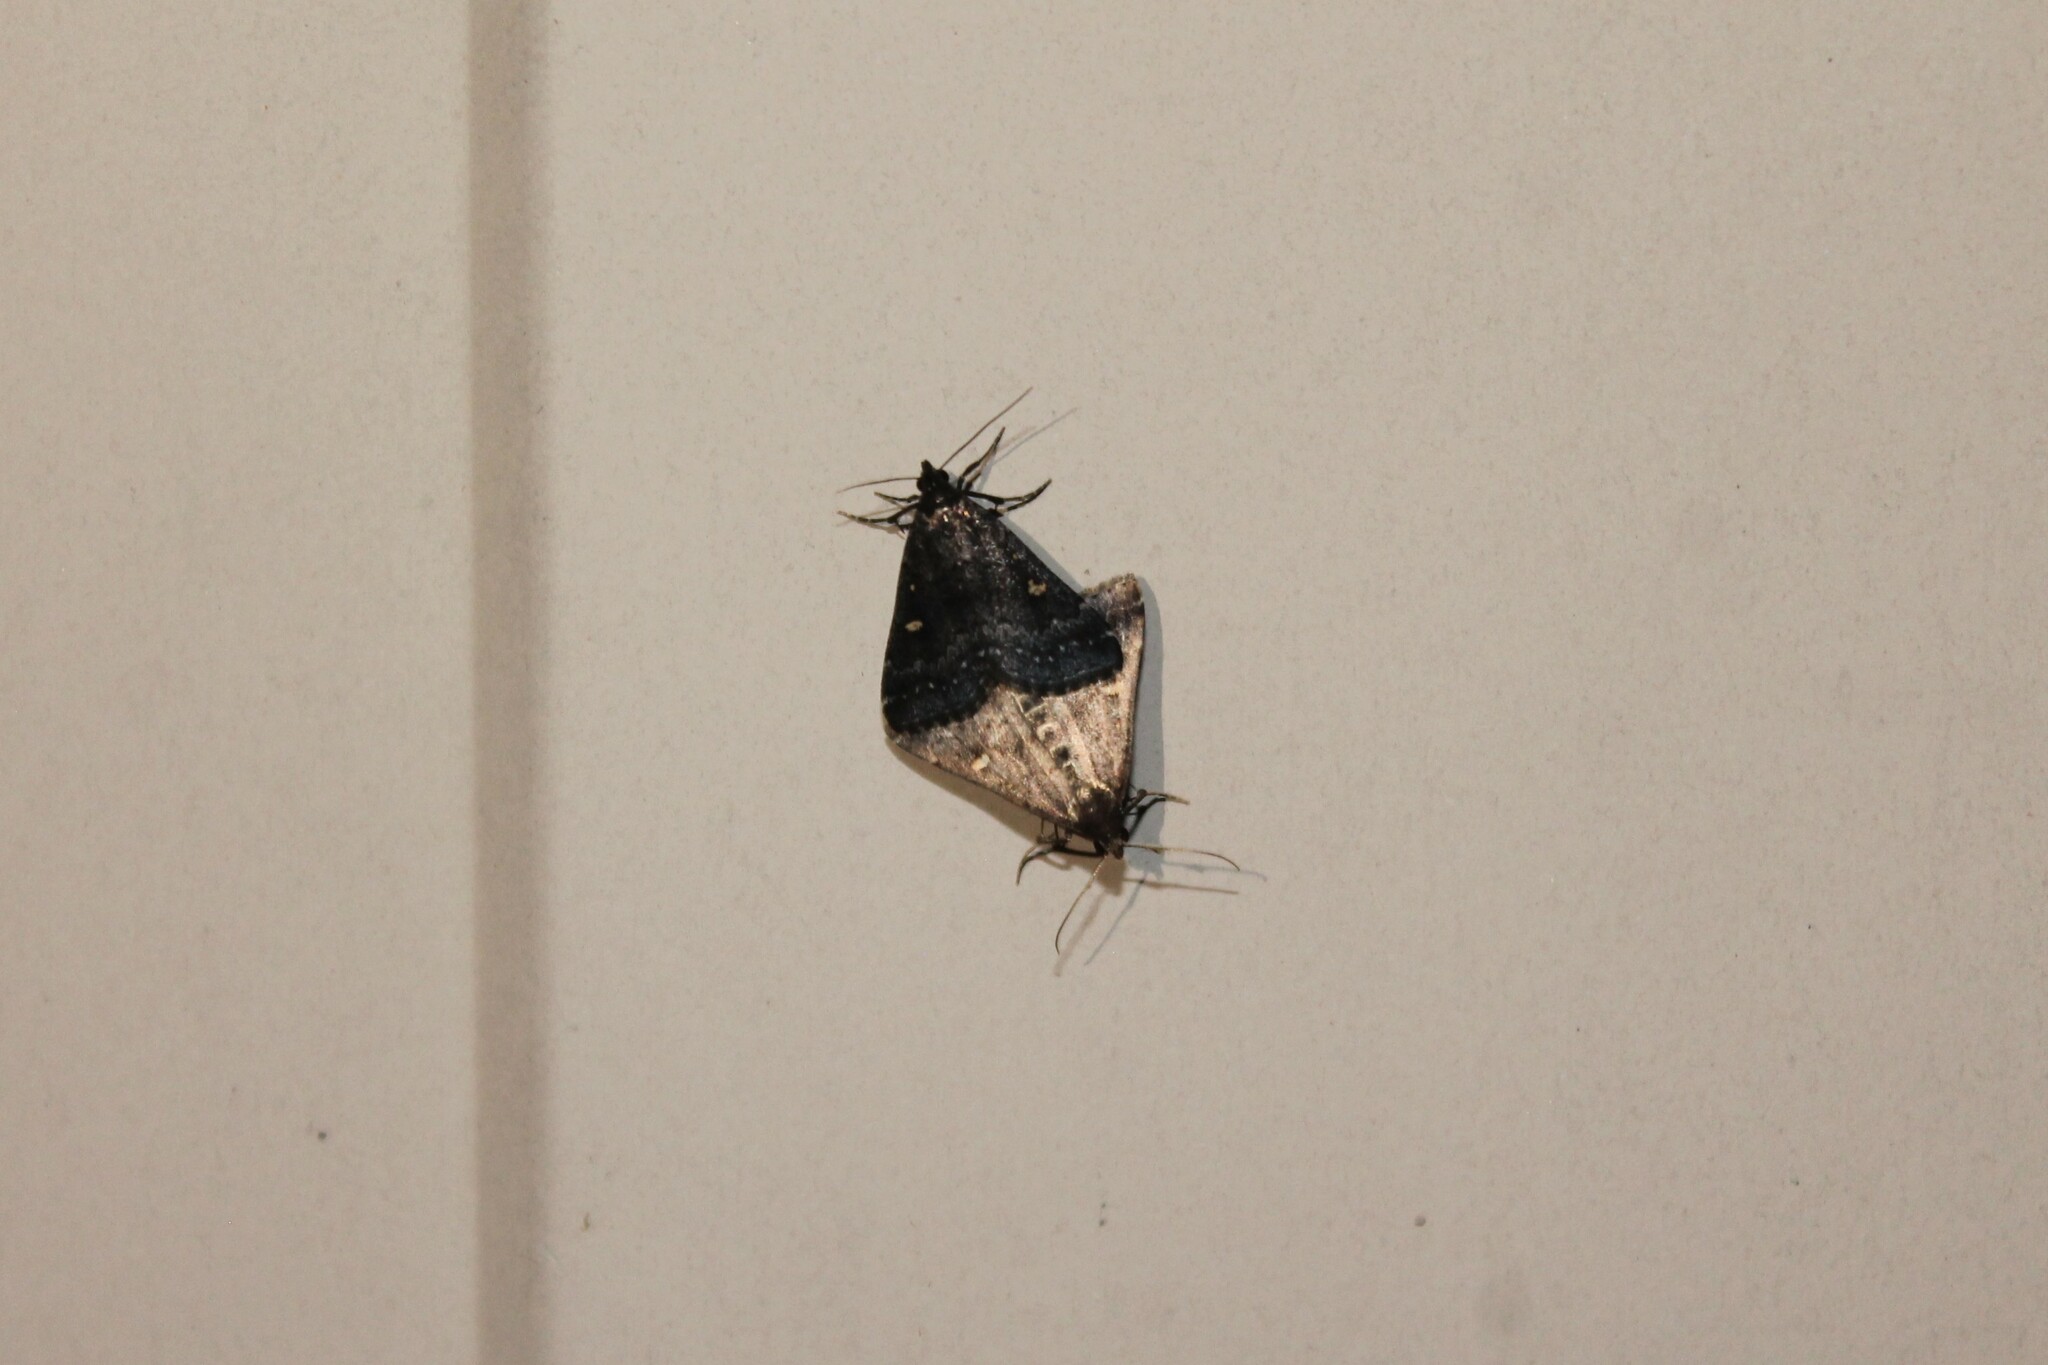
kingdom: Animalia
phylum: Arthropoda
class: Insecta
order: Lepidoptera
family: Erebidae
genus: Tetanolita
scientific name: Tetanolita mynesalis
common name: Smoky tetanolita moth
